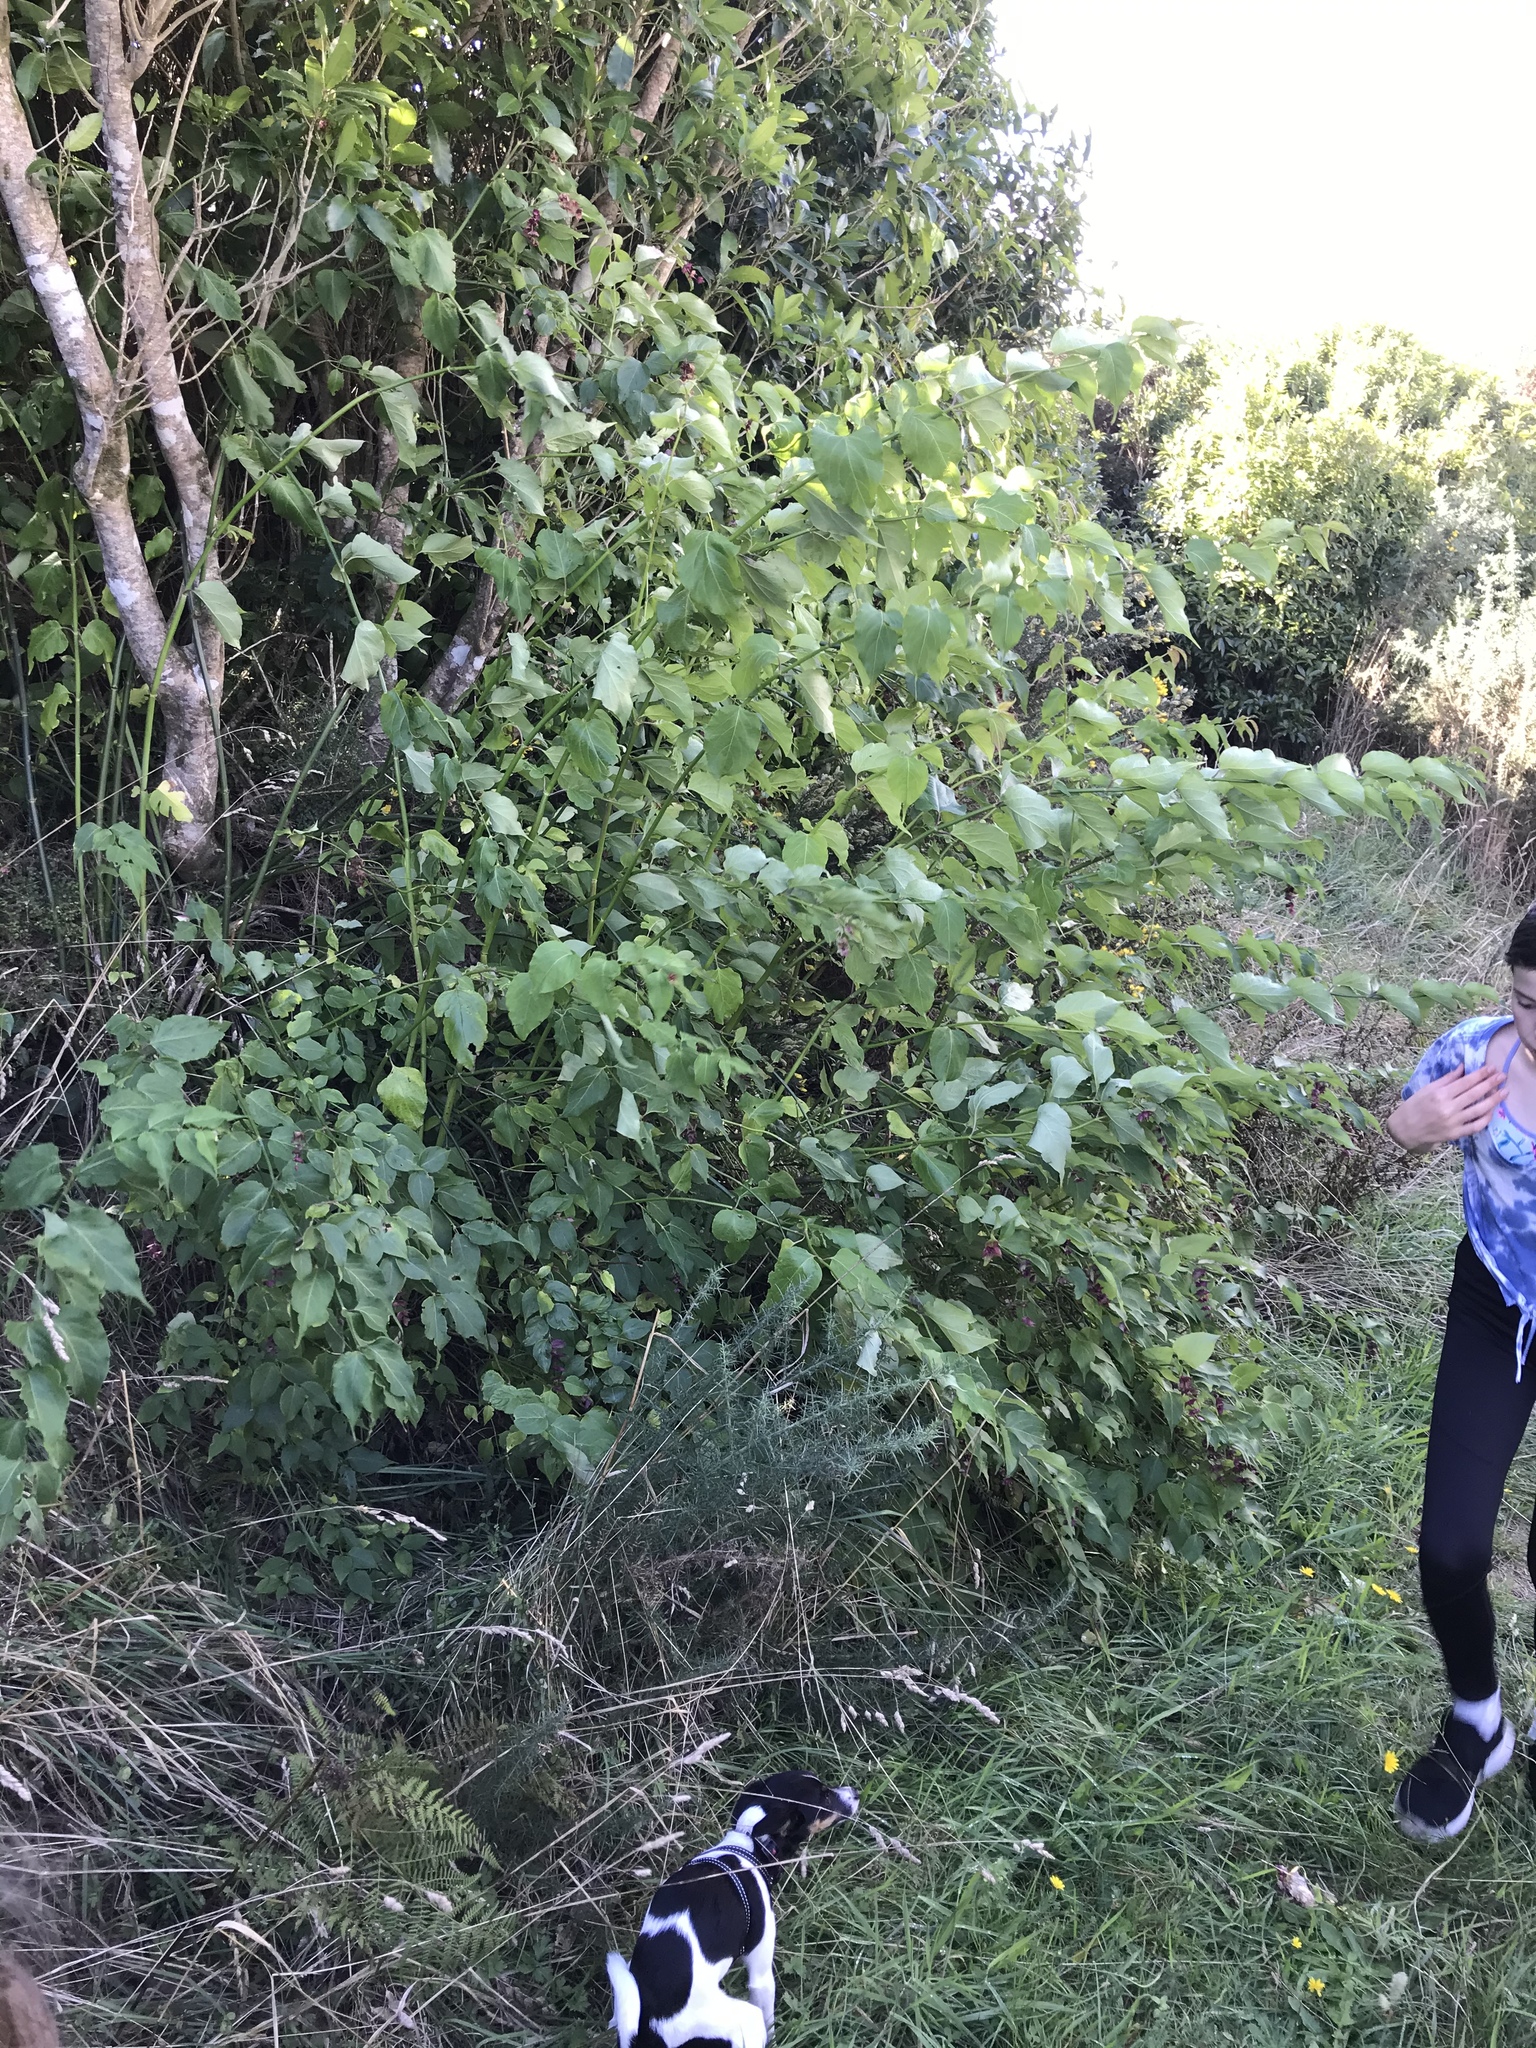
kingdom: Plantae
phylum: Tracheophyta
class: Magnoliopsida
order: Dipsacales
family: Caprifoliaceae
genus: Leycesteria
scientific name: Leycesteria formosa
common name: Himalayan honeysuckle
